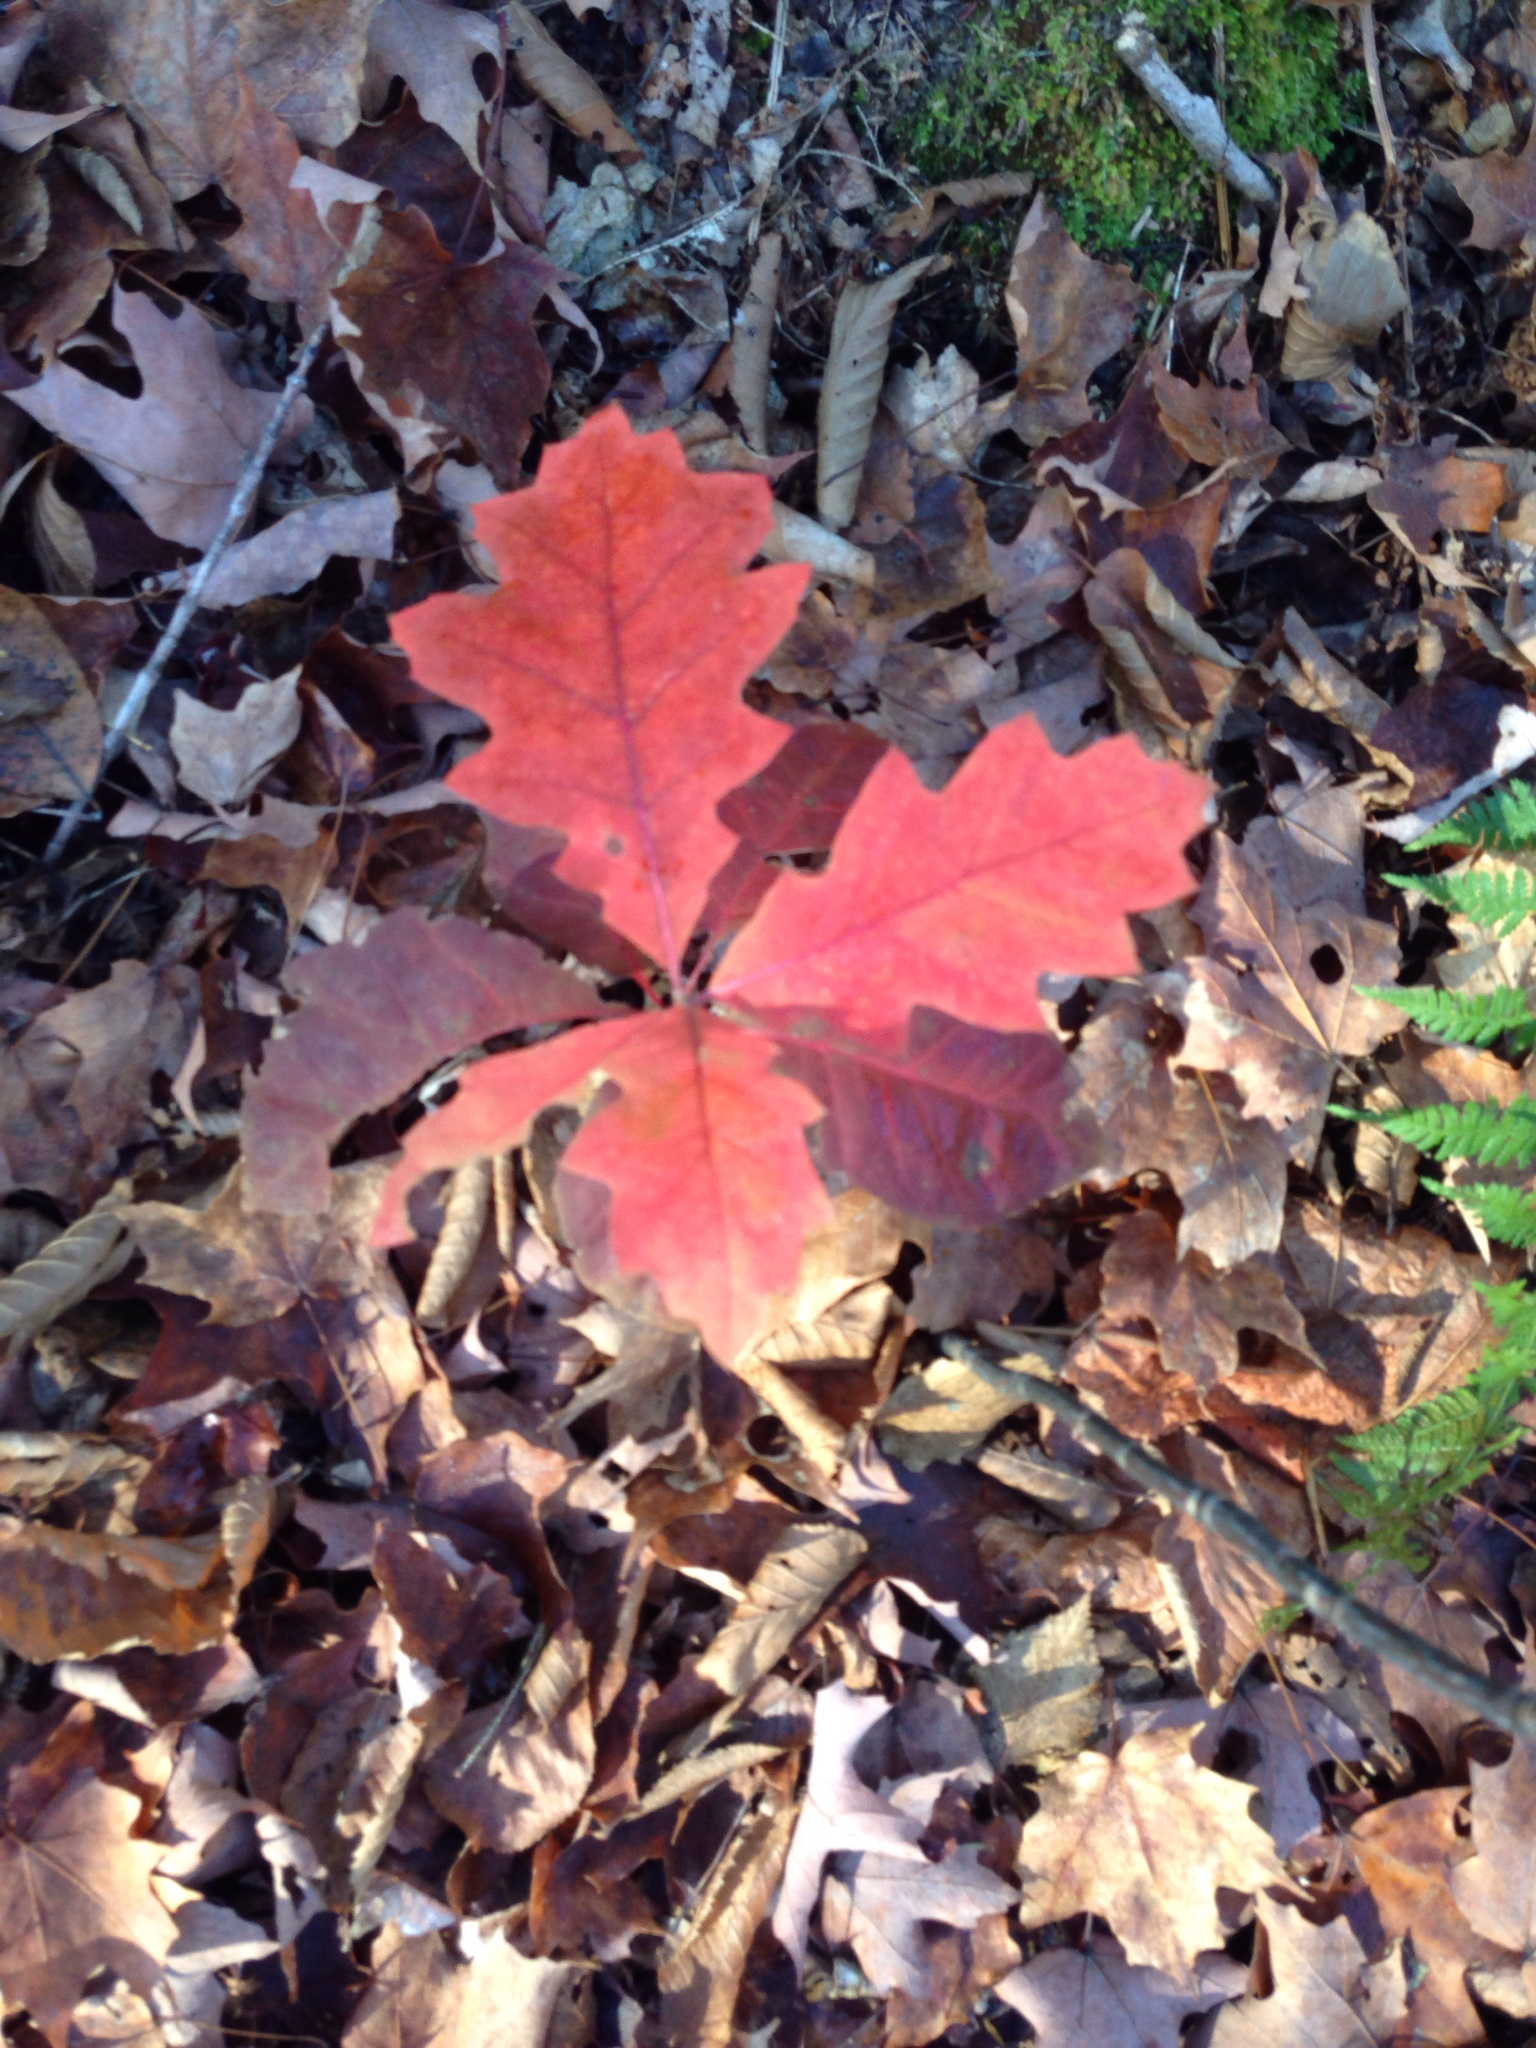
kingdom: Plantae
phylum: Tracheophyta
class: Magnoliopsida
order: Fagales
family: Fagaceae
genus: Quercus
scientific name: Quercus rubra
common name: Red oak
